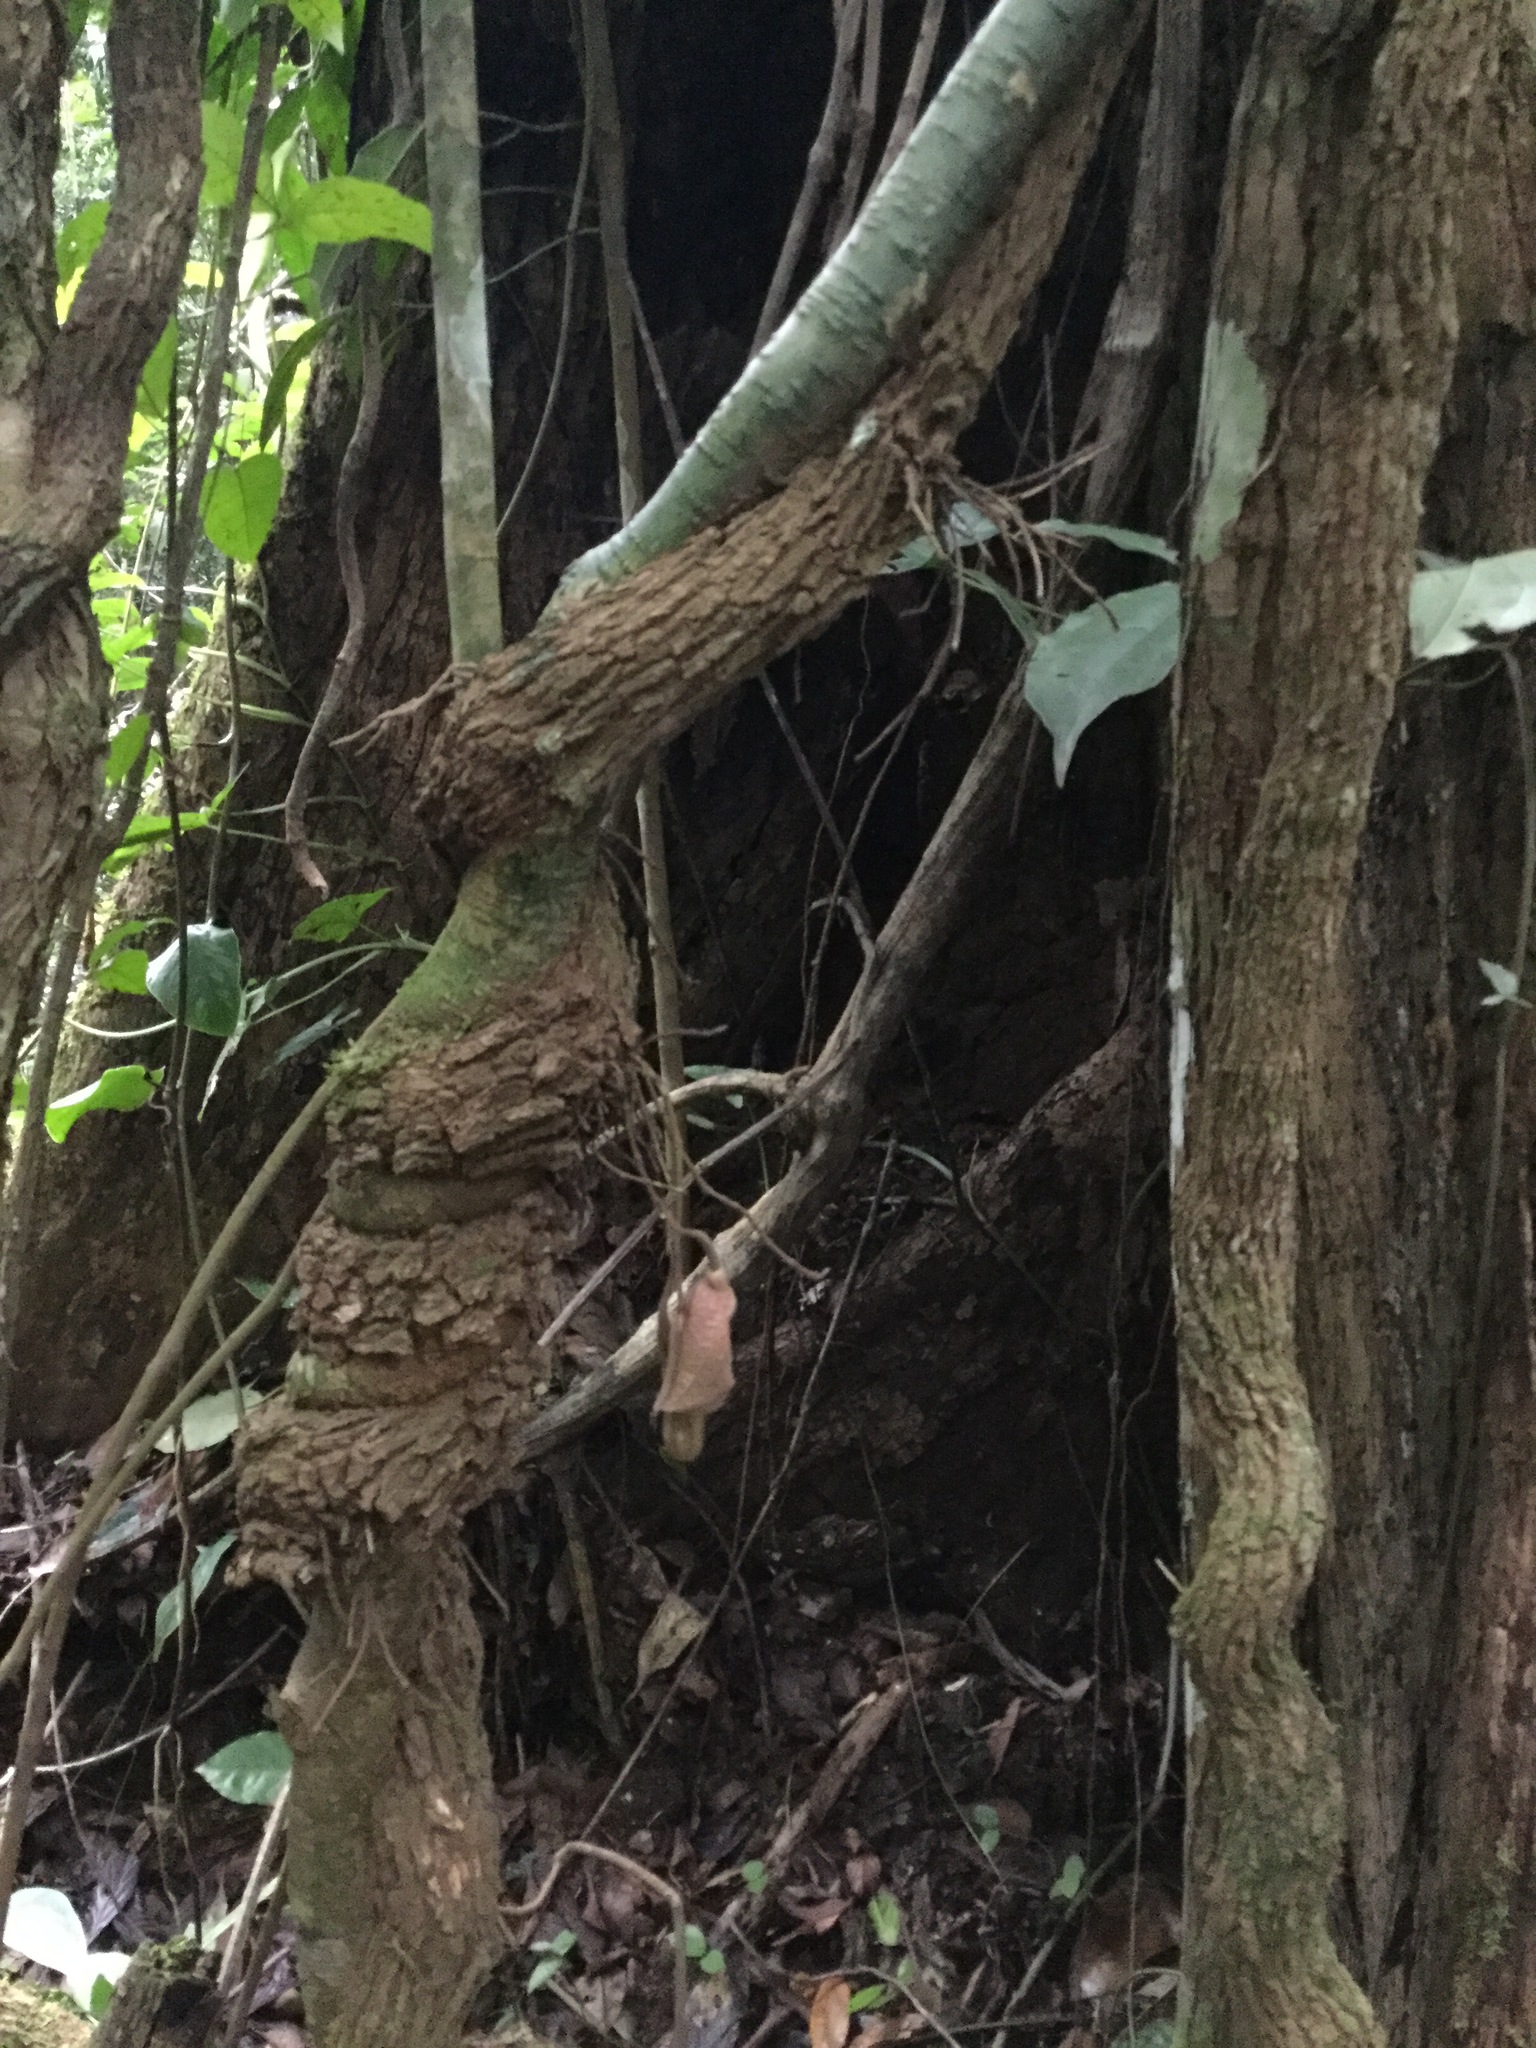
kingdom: Plantae
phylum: Tracheophyta
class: Magnoliopsida
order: Piperales
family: Aristolochiaceae
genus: Isotrema
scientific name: Isotrema paracletum
